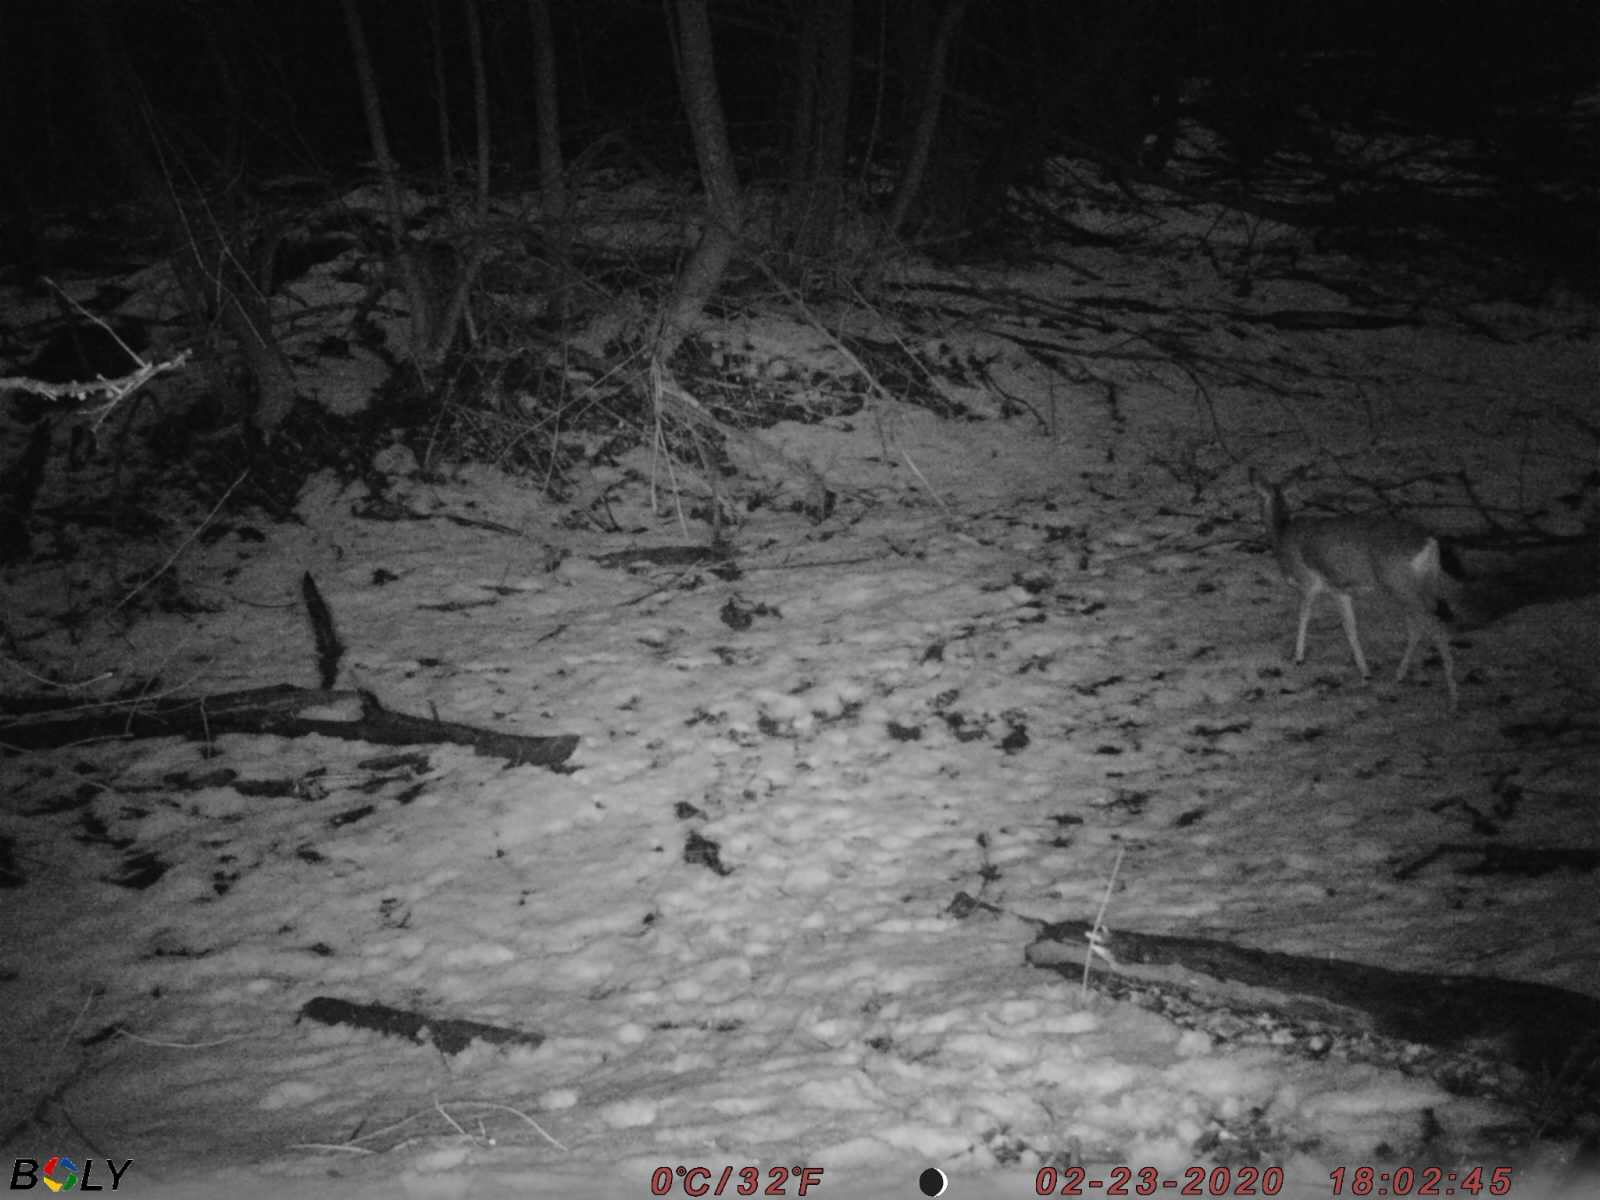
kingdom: Animalia
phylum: Chordata
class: Mammalia
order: Artiodactyla
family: Cervidae
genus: Capreolus
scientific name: Capreolus pygargus
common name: Siberian roe
